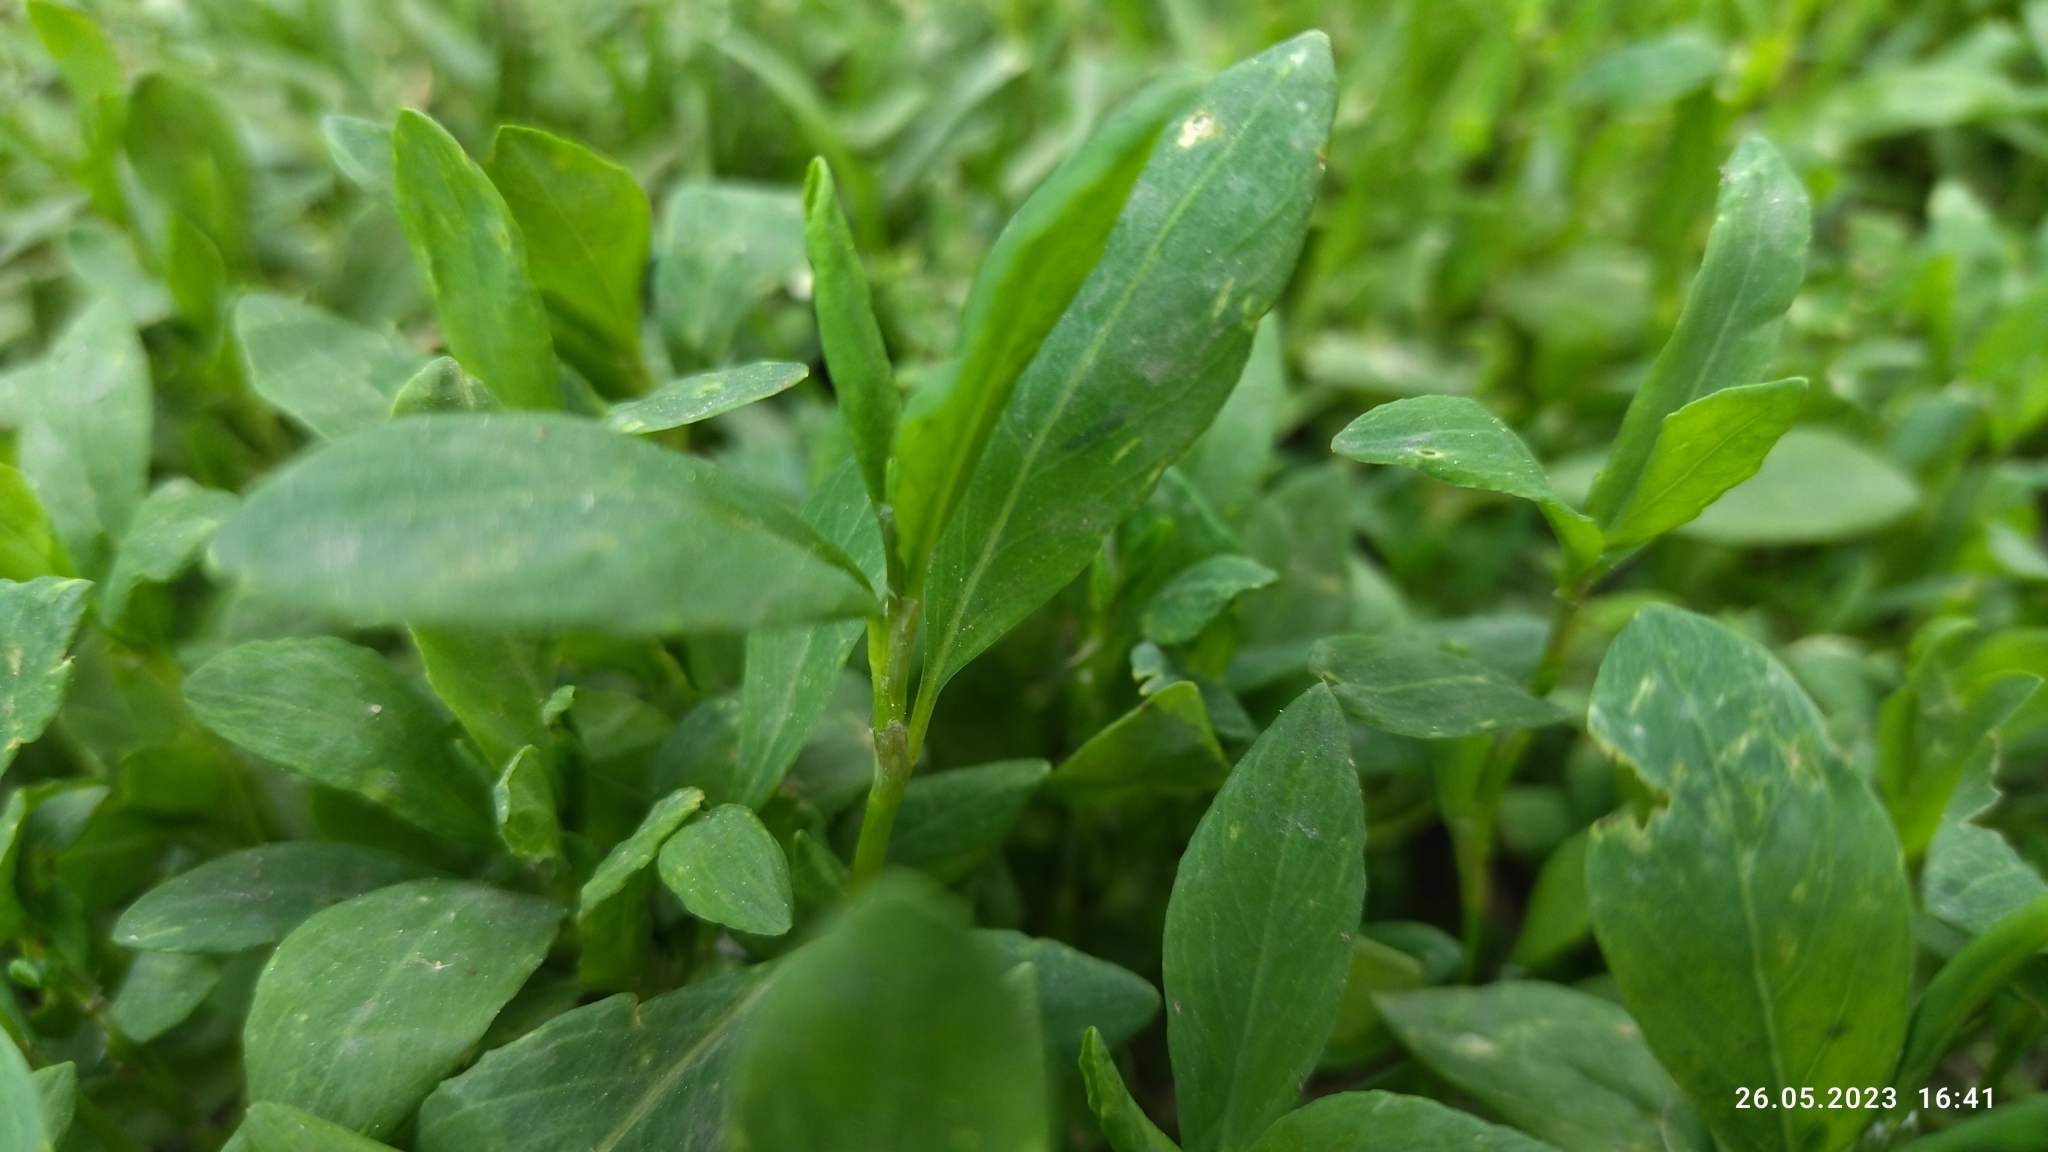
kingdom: Plantae
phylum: Tracheophyta
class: Magnoliopsida
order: Caryophyllales
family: Polygonaceae
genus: Polygonum
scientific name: Polygonum
